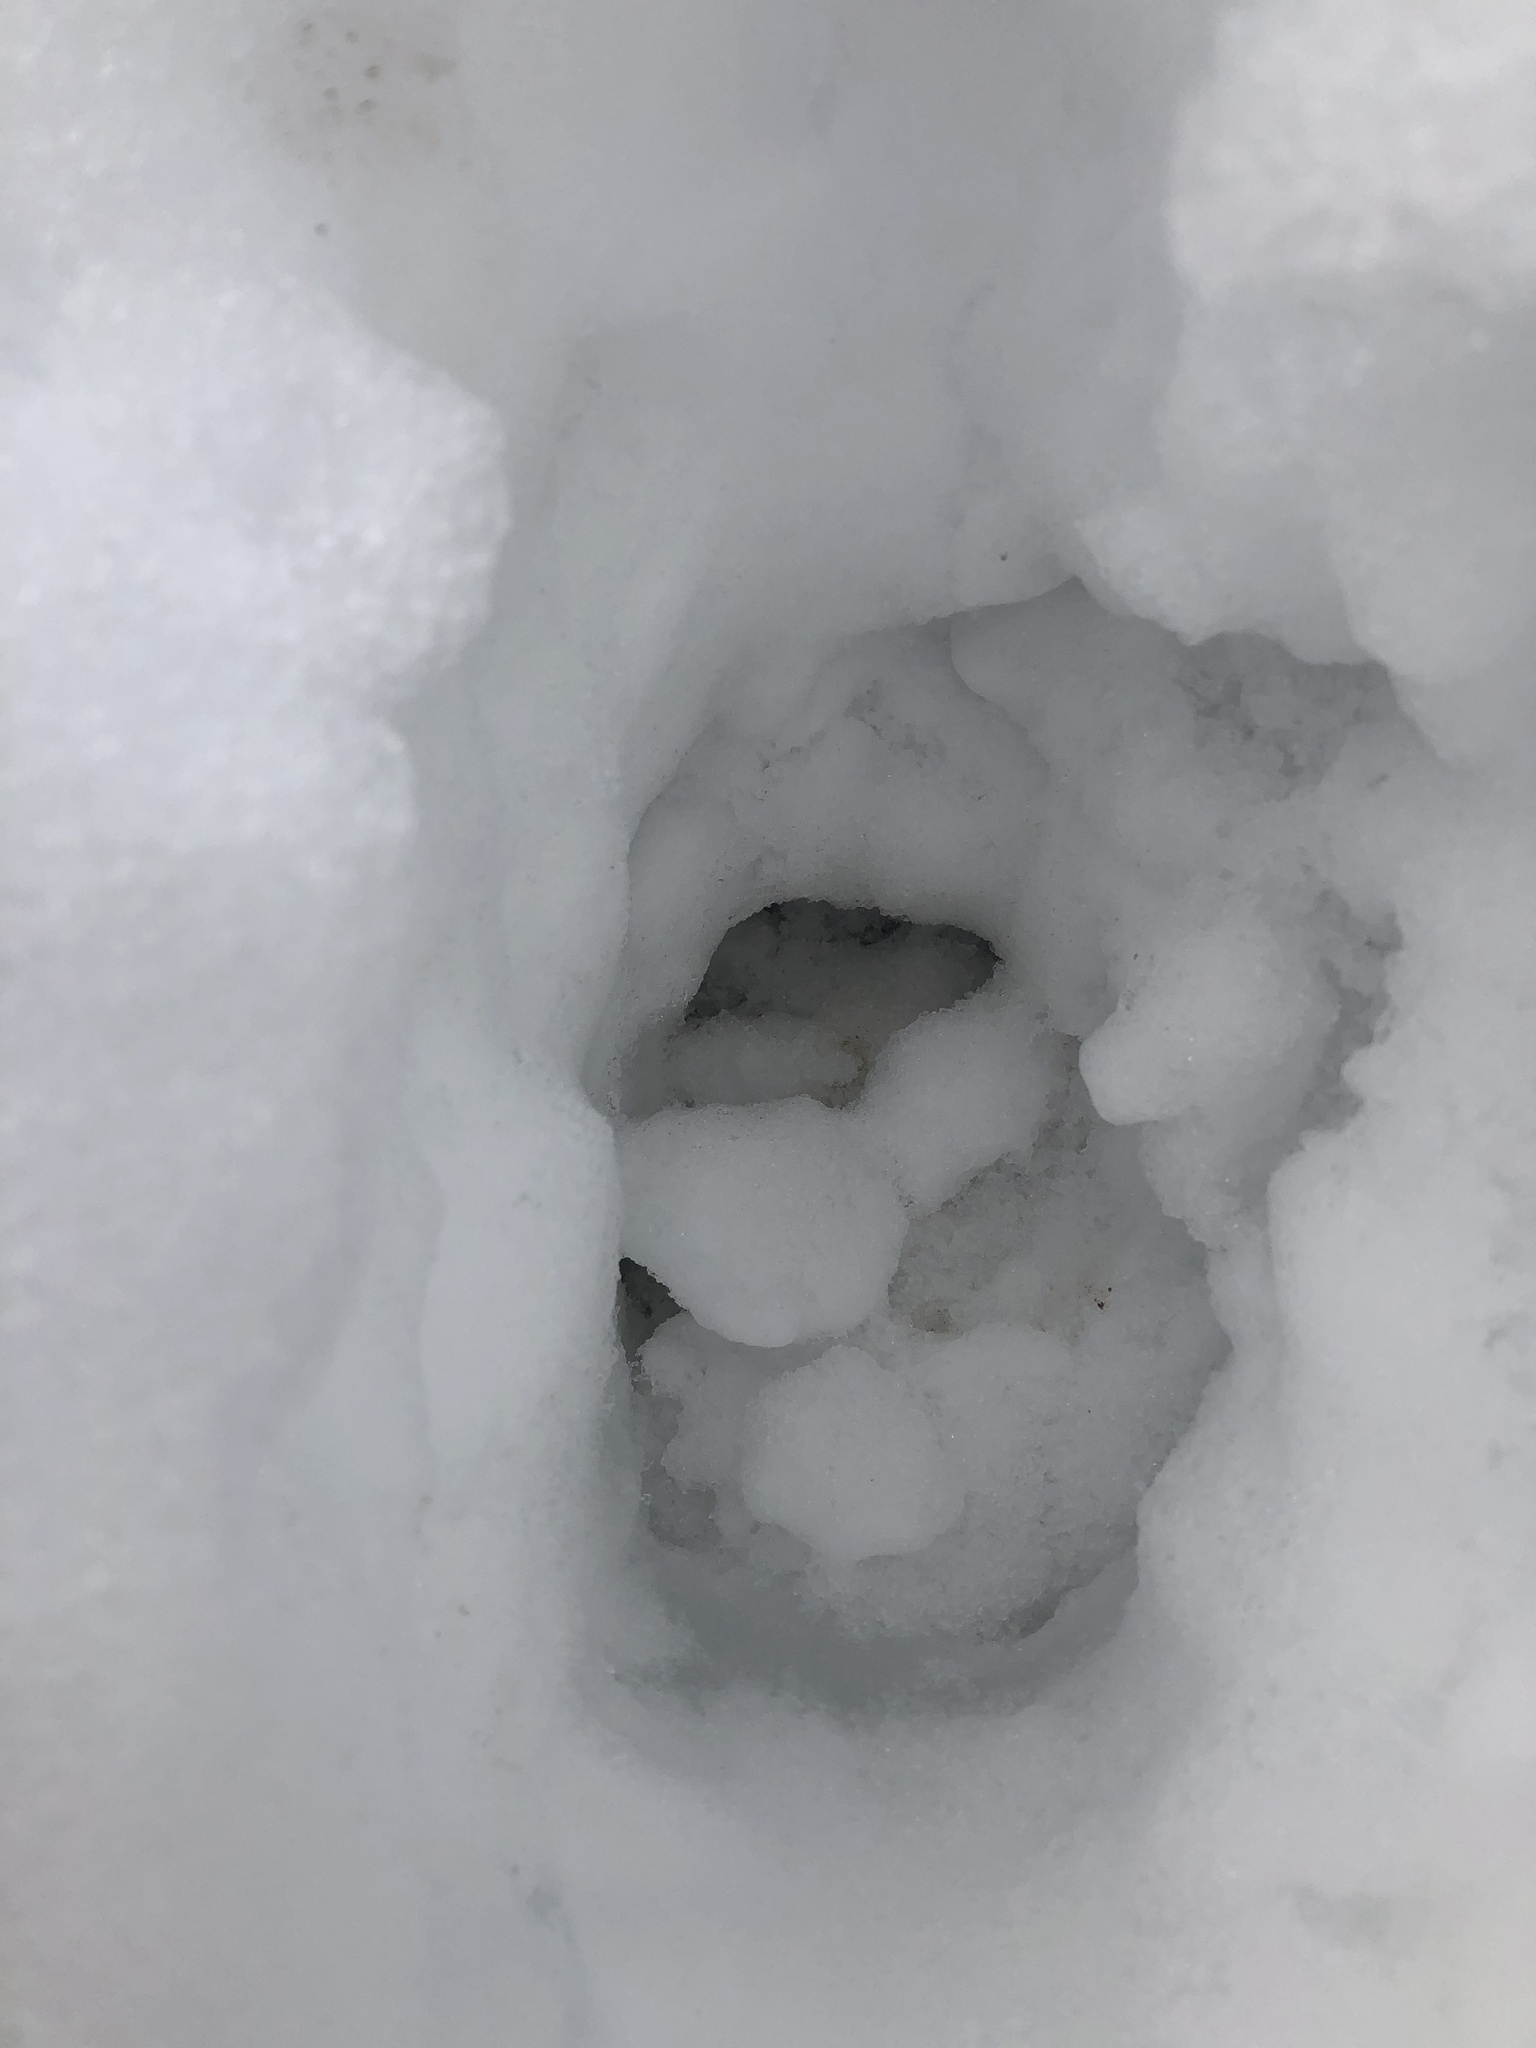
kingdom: Animalia
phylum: Chordata
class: Mammalia
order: Artiodactyla
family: Cervidae
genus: Odocoileus
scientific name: Odocoileus virginianus
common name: White-tailed deer
